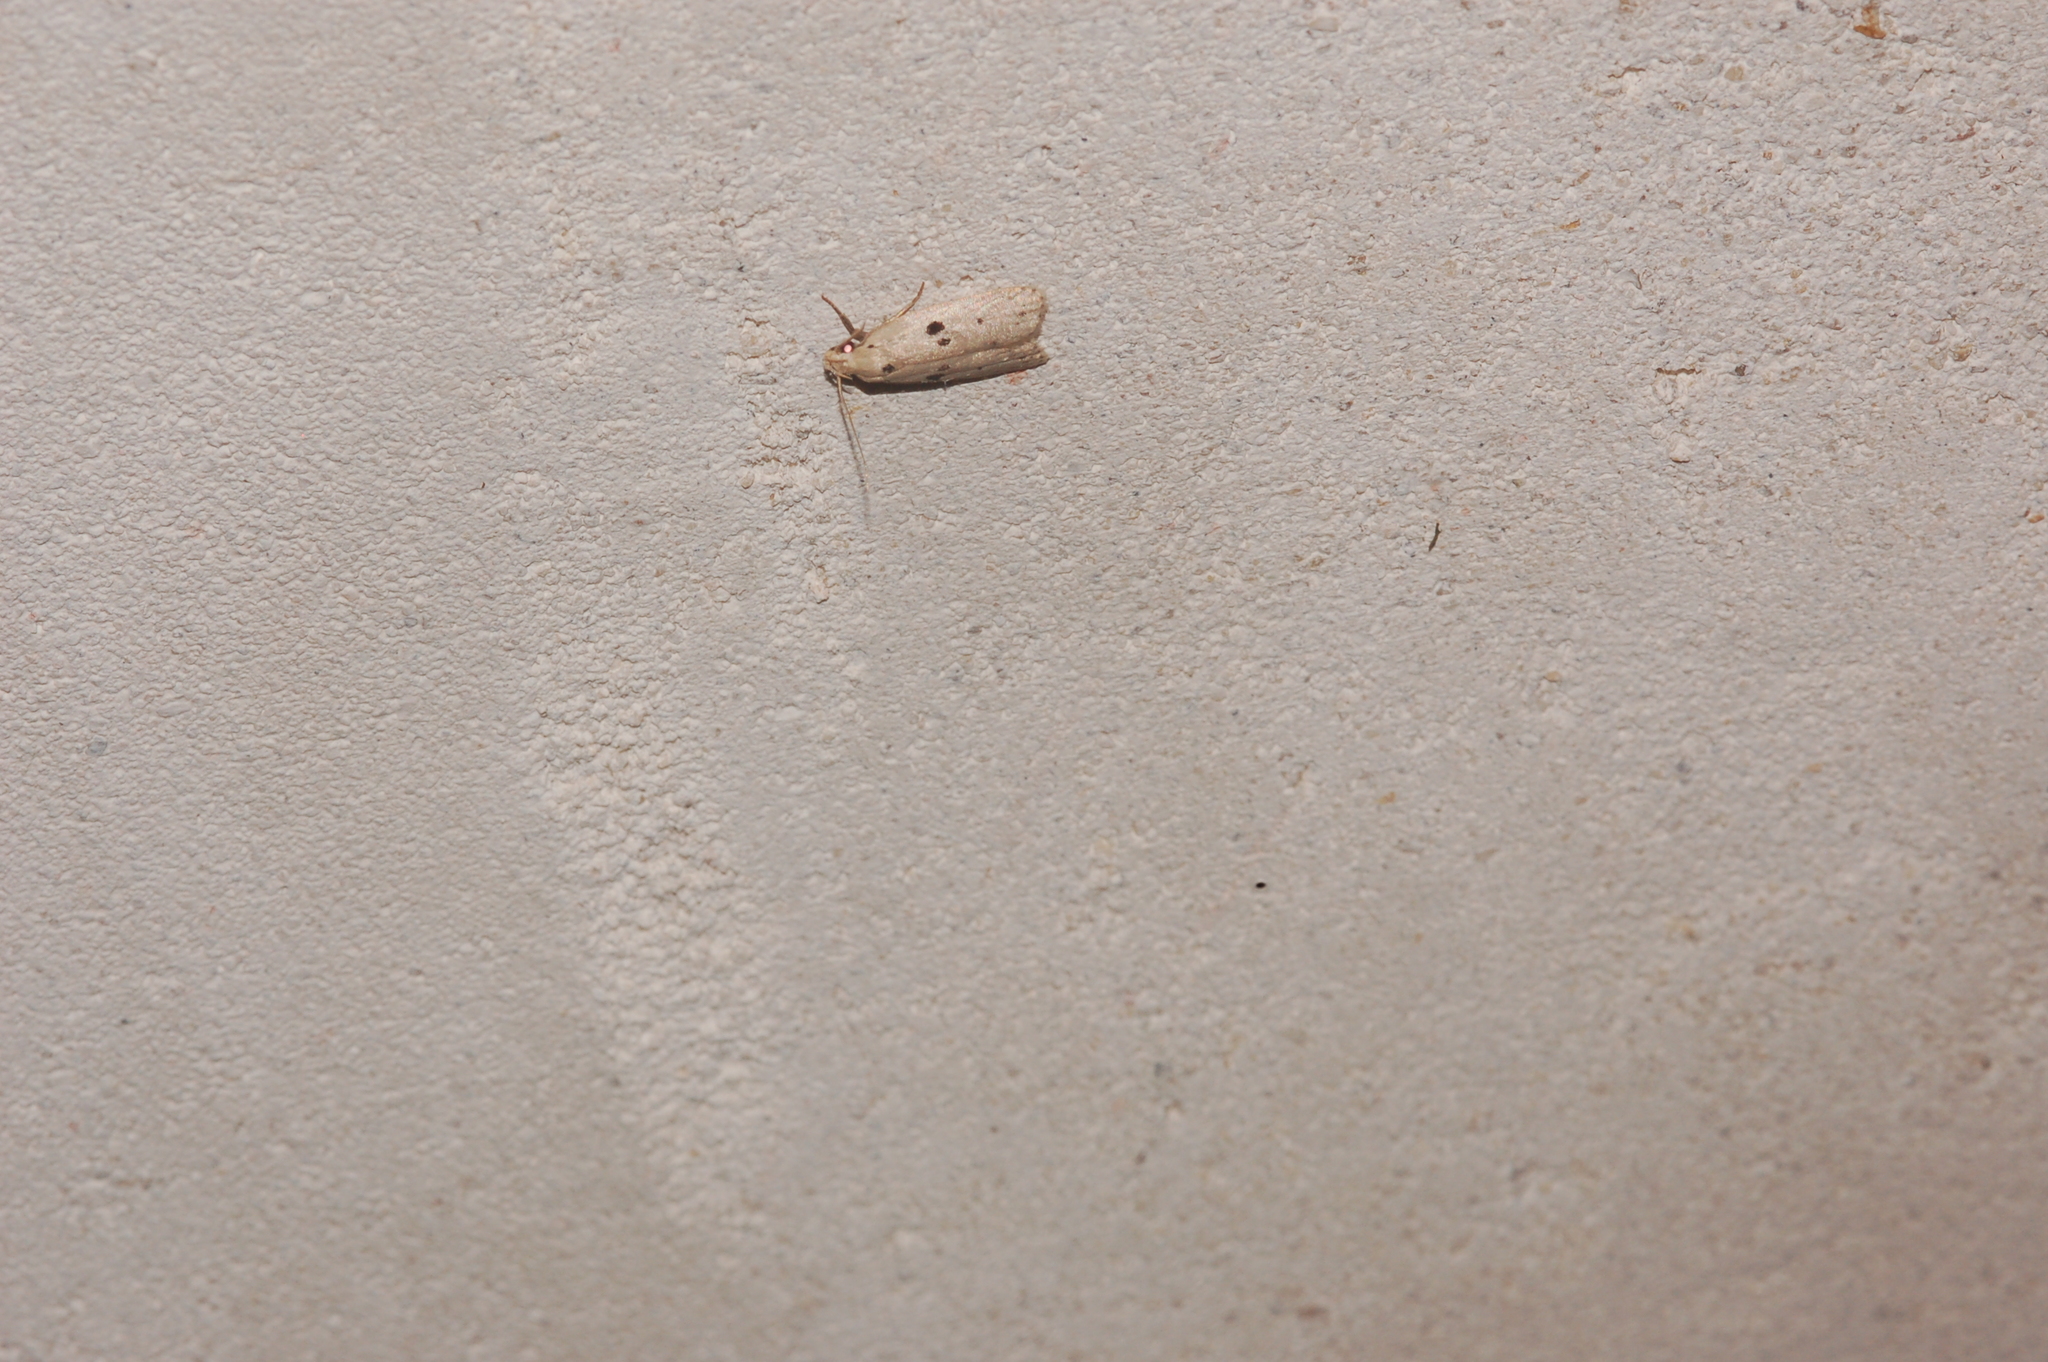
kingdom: Animalia
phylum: Arthropoda
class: Insecta
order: Lepidoptera
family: Peleopodidae
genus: Scythropiodes
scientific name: Scythropiodes issikii
